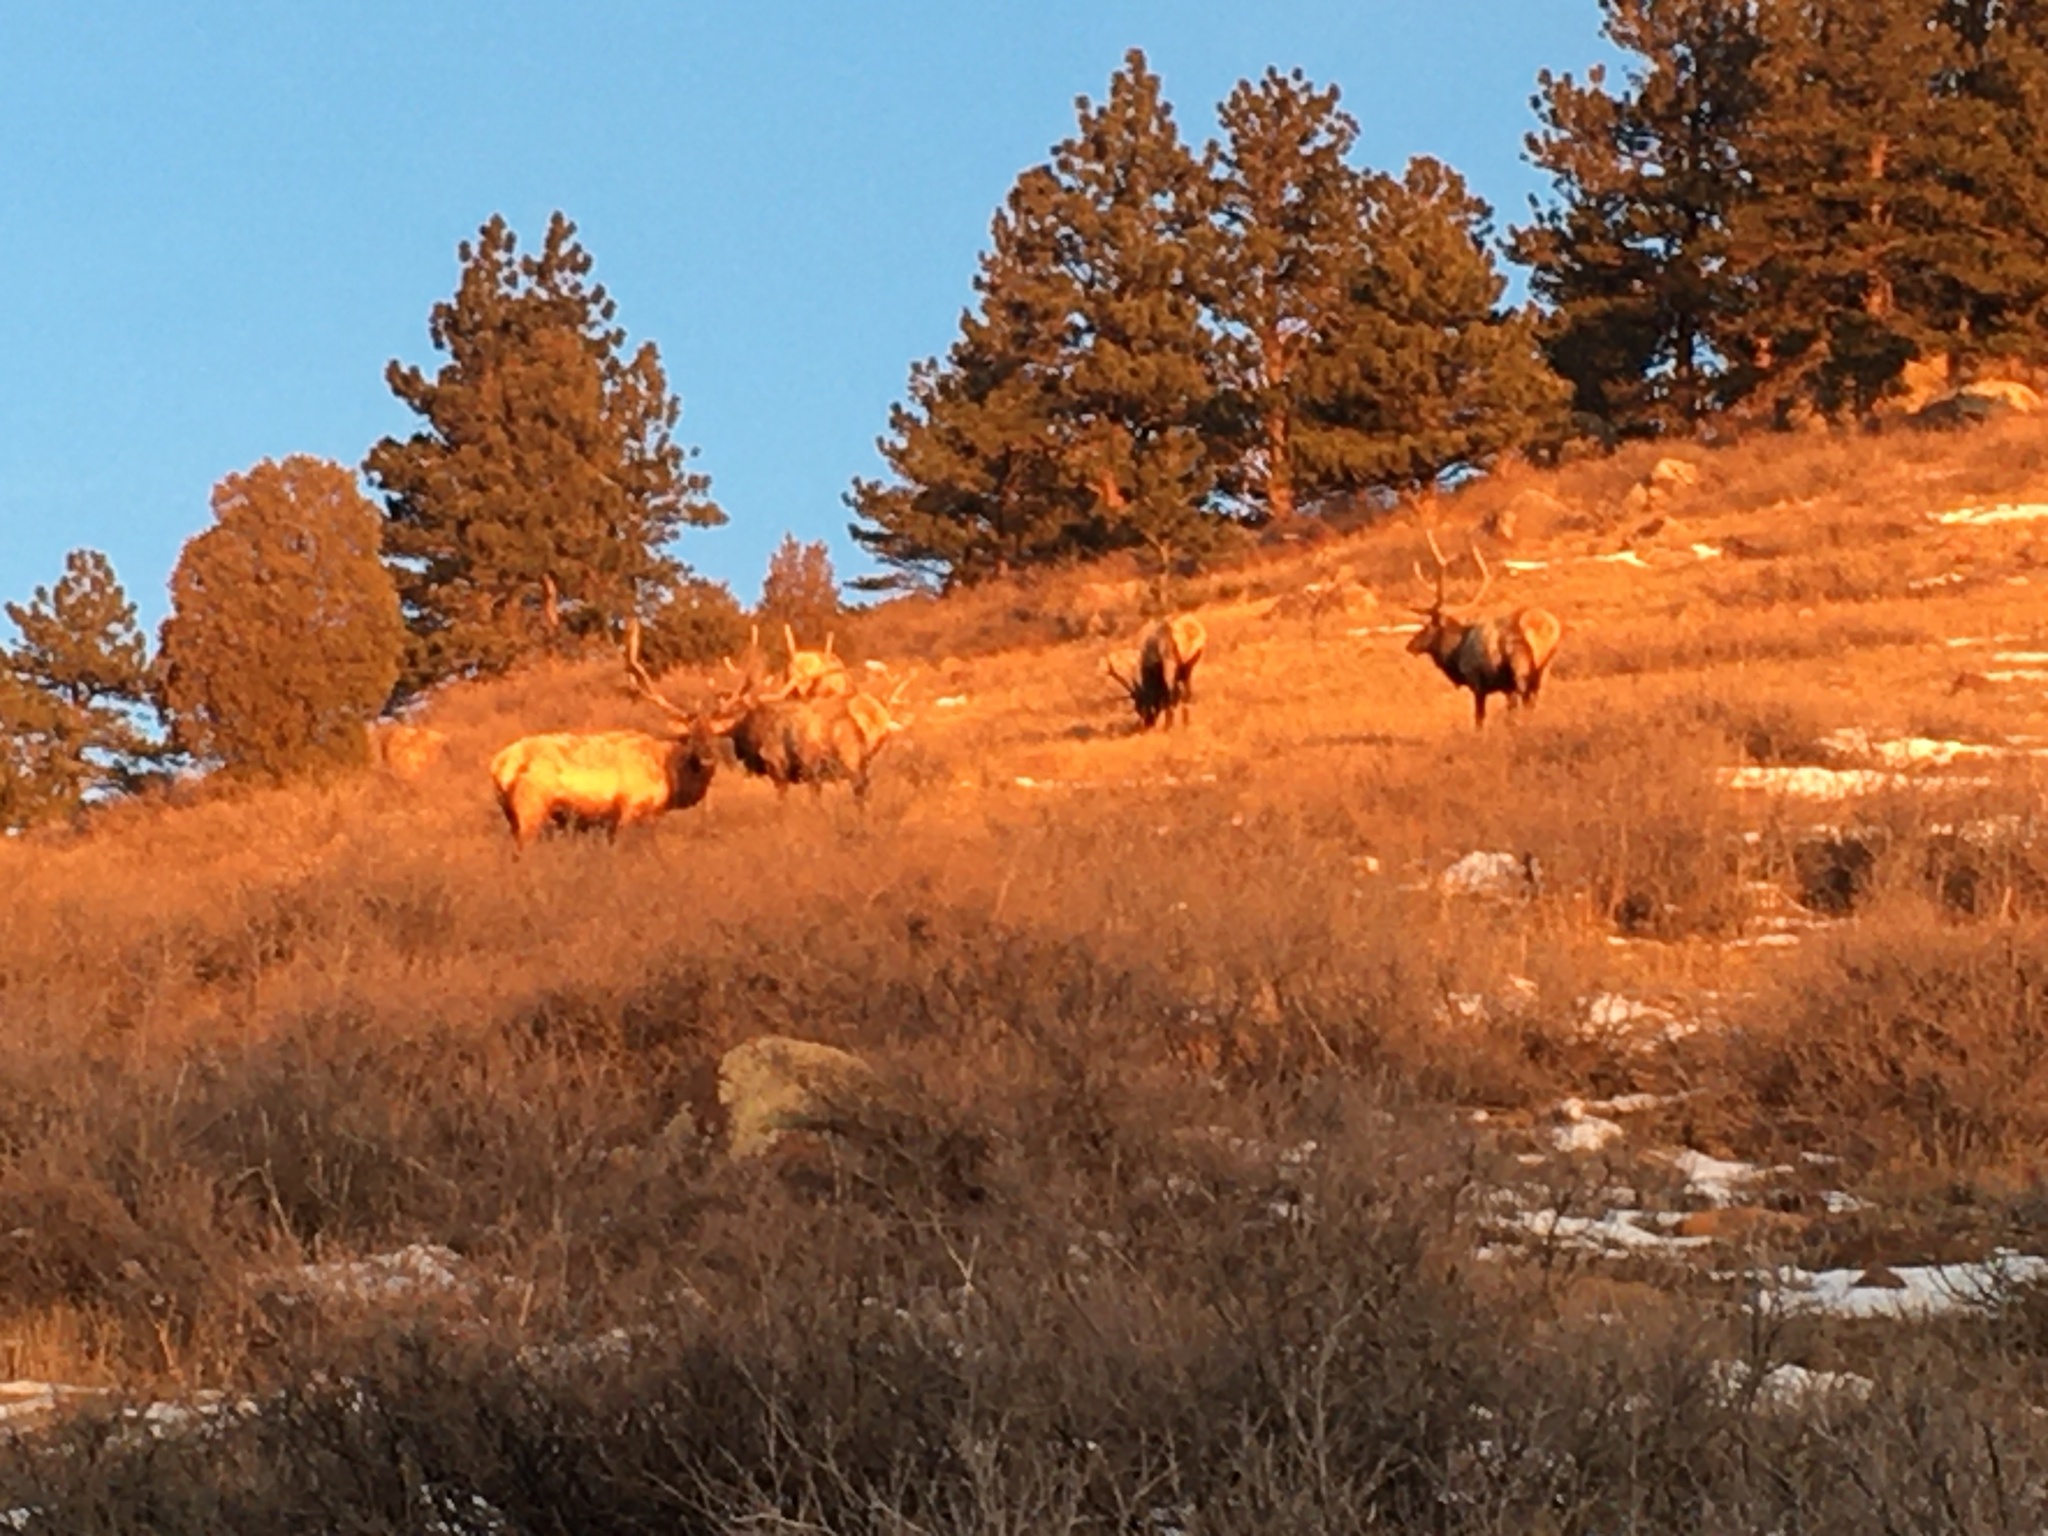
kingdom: Animalia
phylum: Chordata
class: Mammalia
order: Artiodactyla
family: Cervidae
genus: Cervus
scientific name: Cervus elaphus
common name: Red deer
